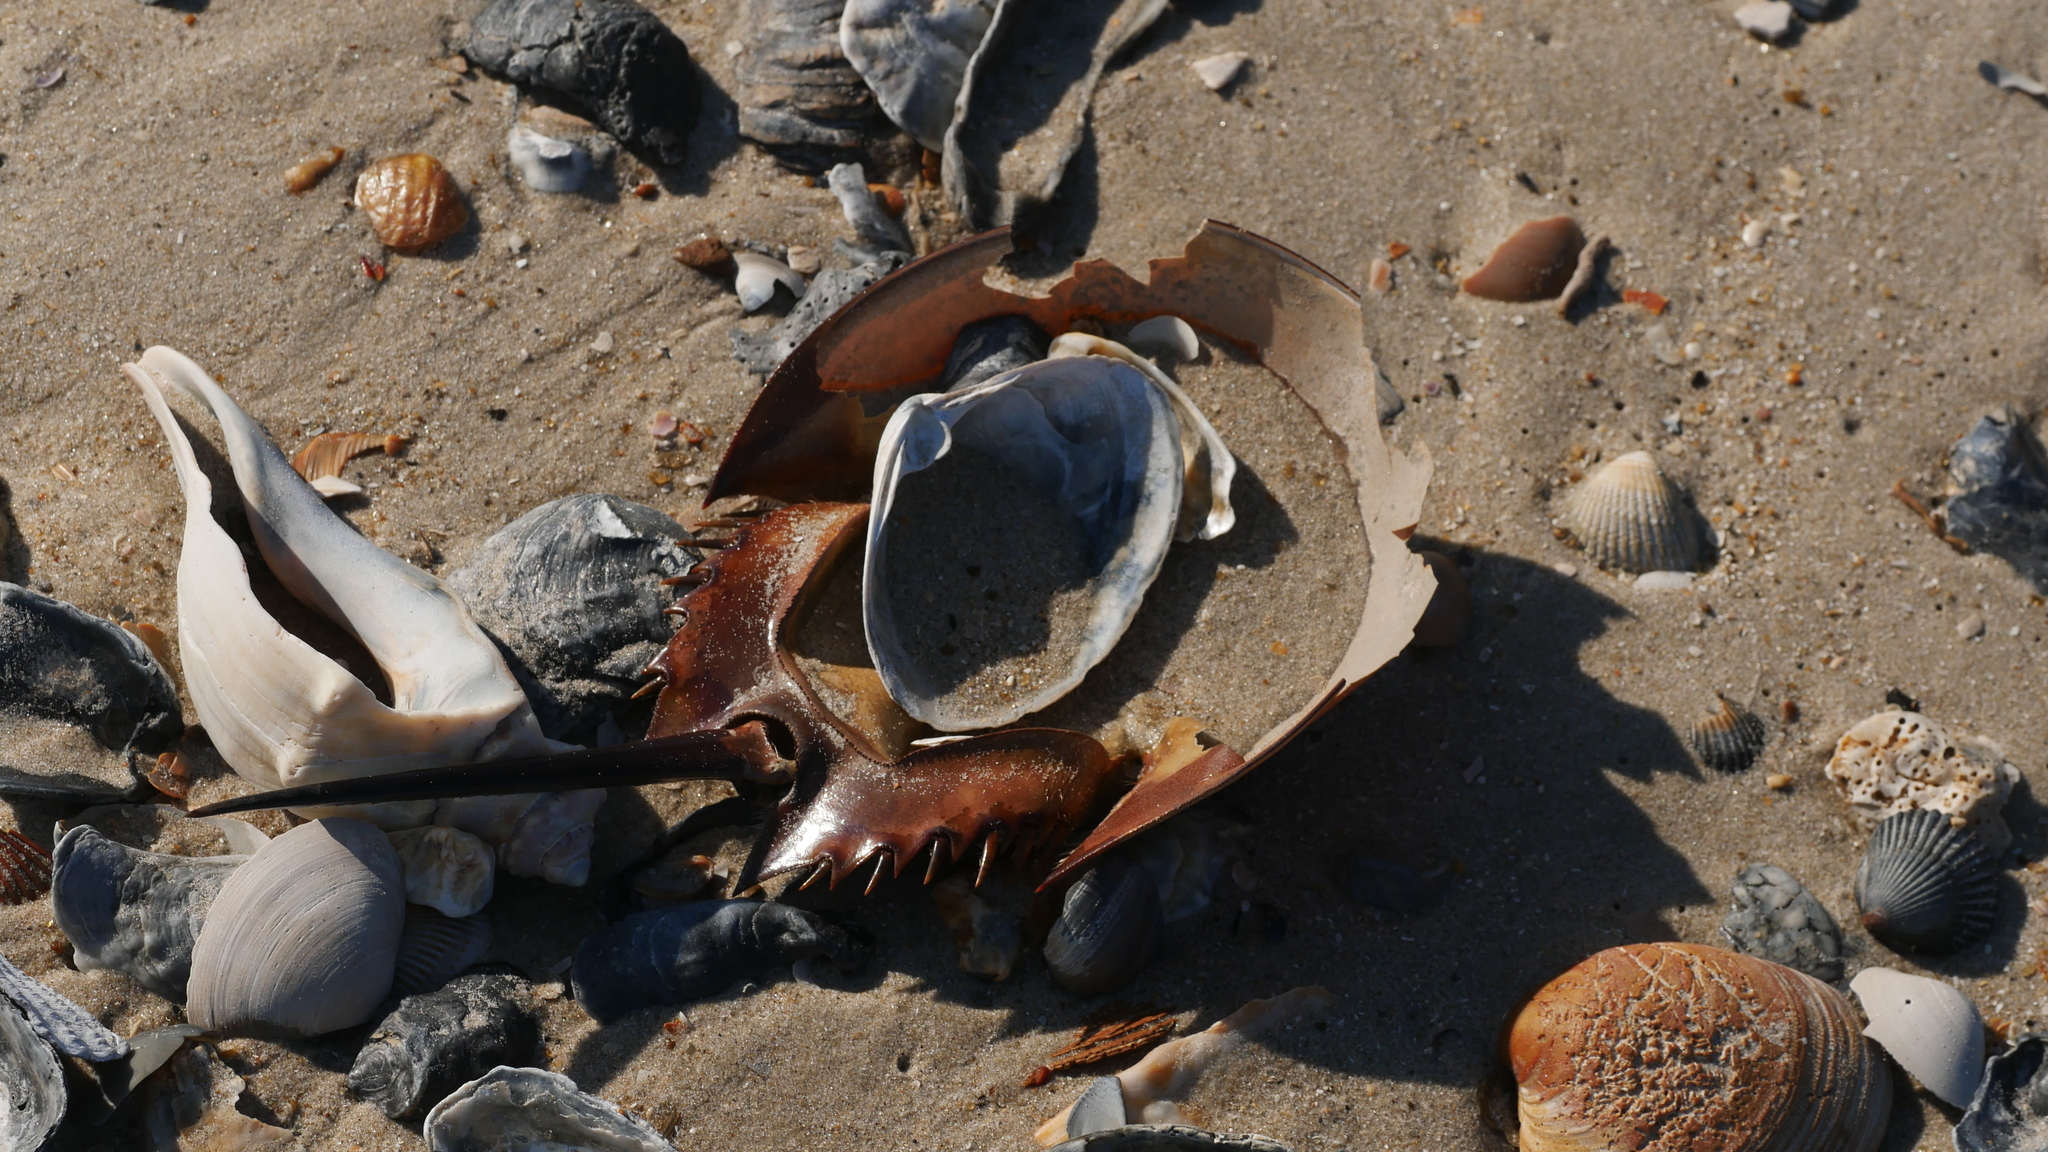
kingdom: Animalia
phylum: Arthropoda
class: Merostomata
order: Xiphosurida
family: Limulidae
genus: Limulus
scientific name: Limulus polyphemus
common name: Horseshoe crab
